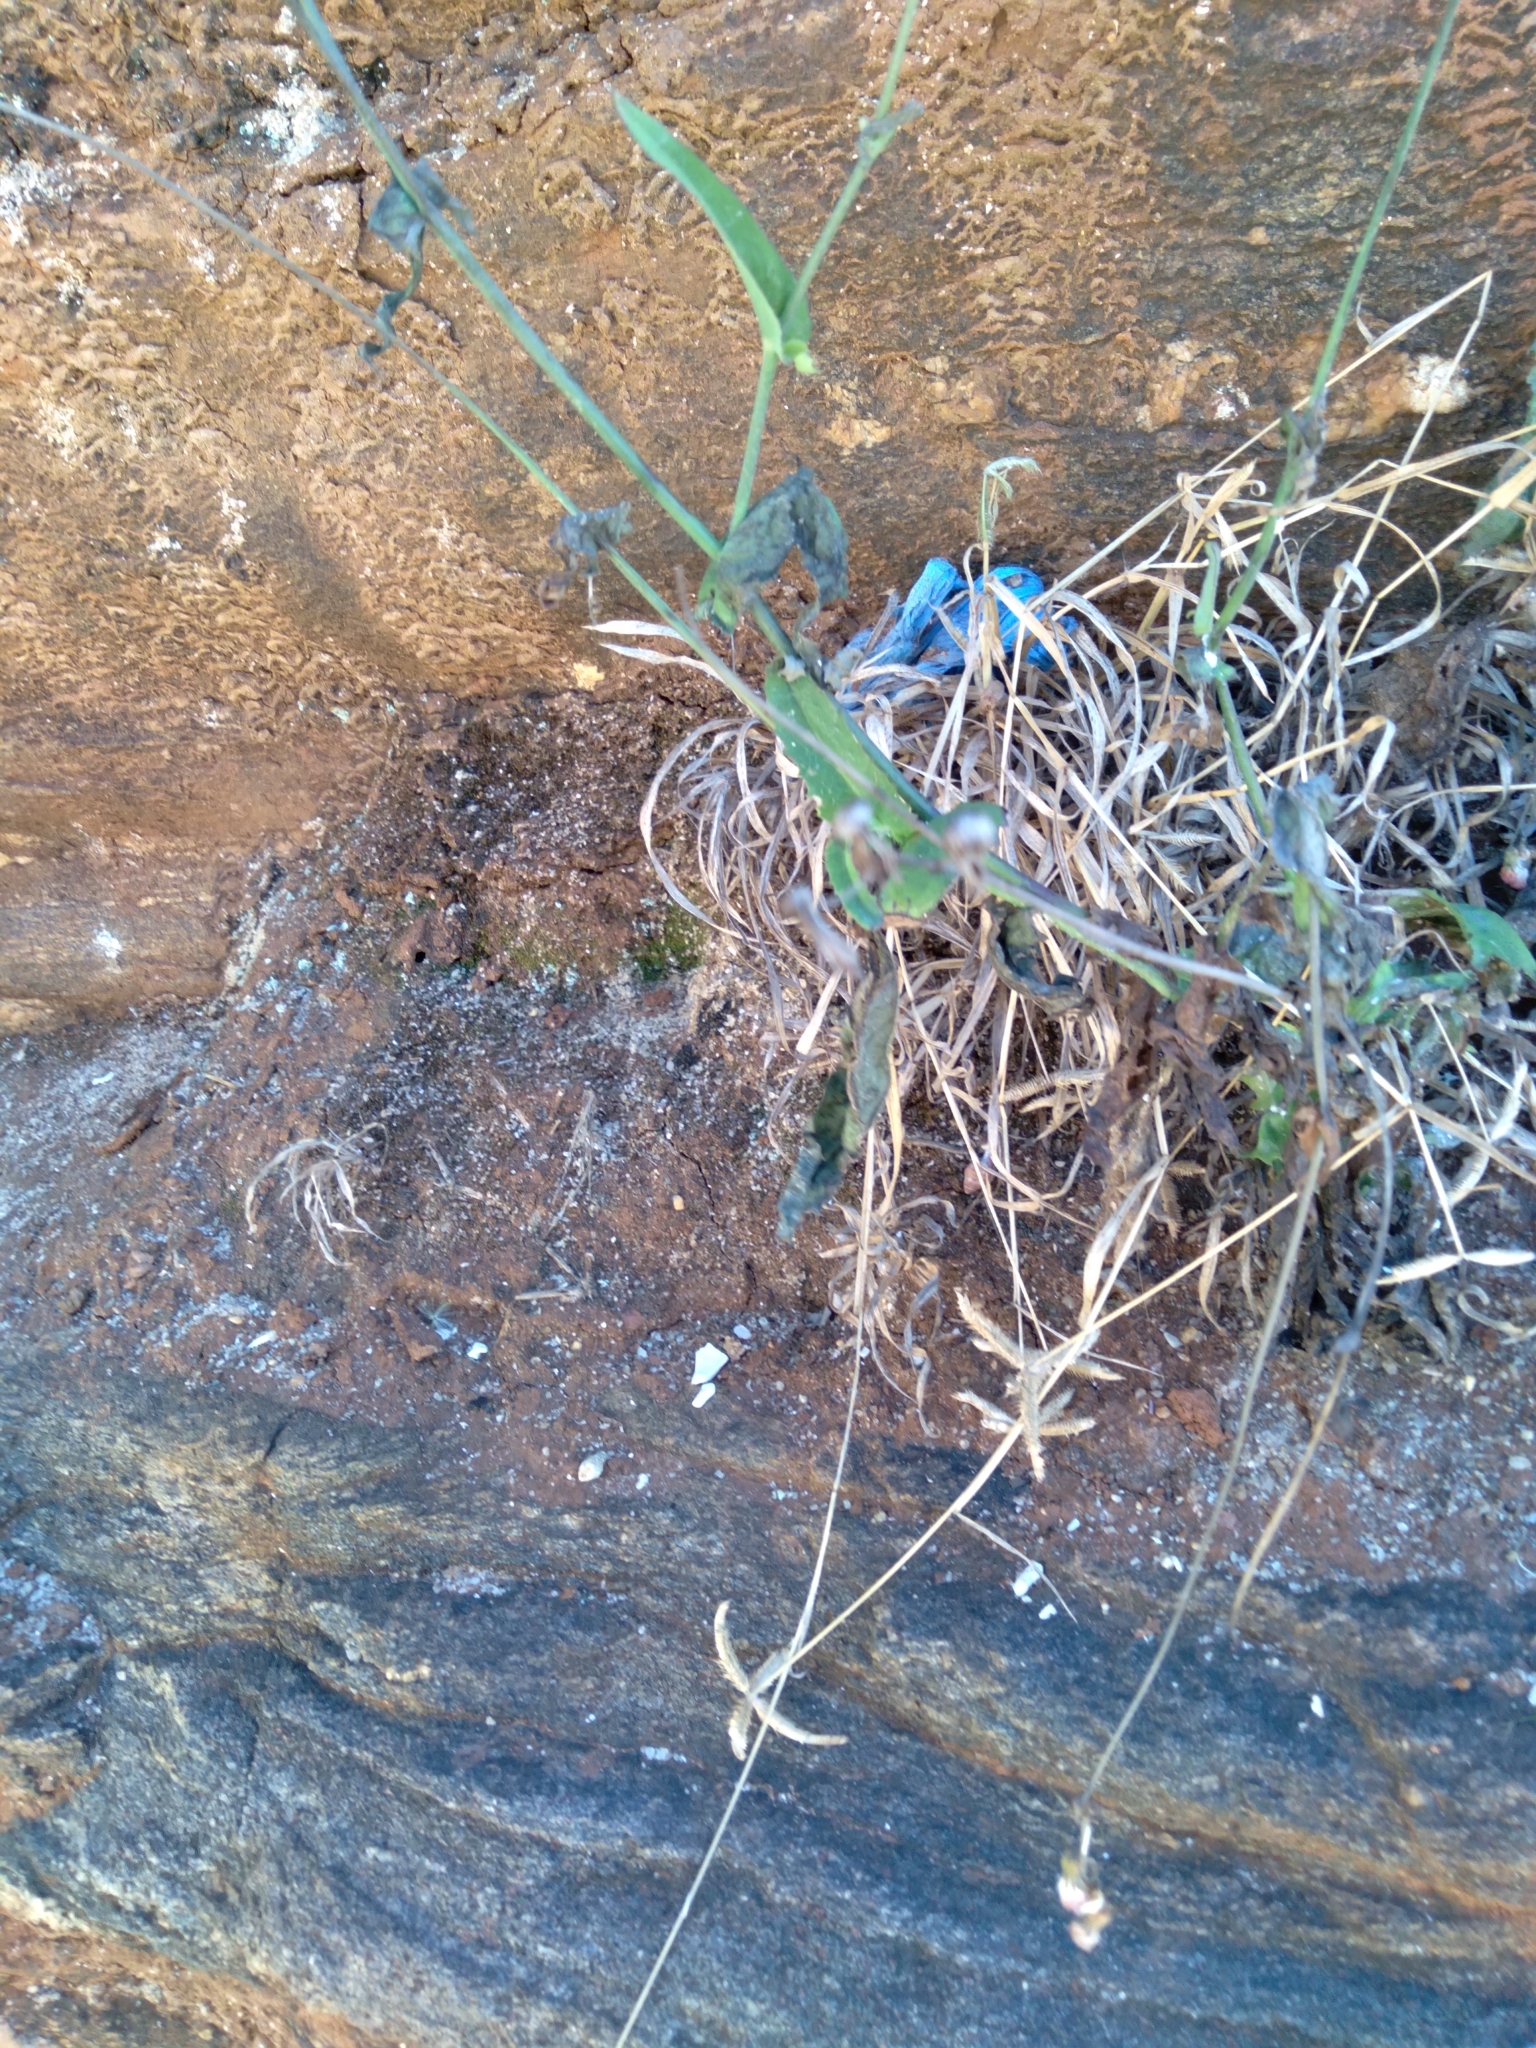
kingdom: Plantae
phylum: Tracheophyta
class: Magnoliopsida
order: Asterales
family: Asteraceae
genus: Emilia
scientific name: Emilia fosbergii
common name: Florida tasselflower
